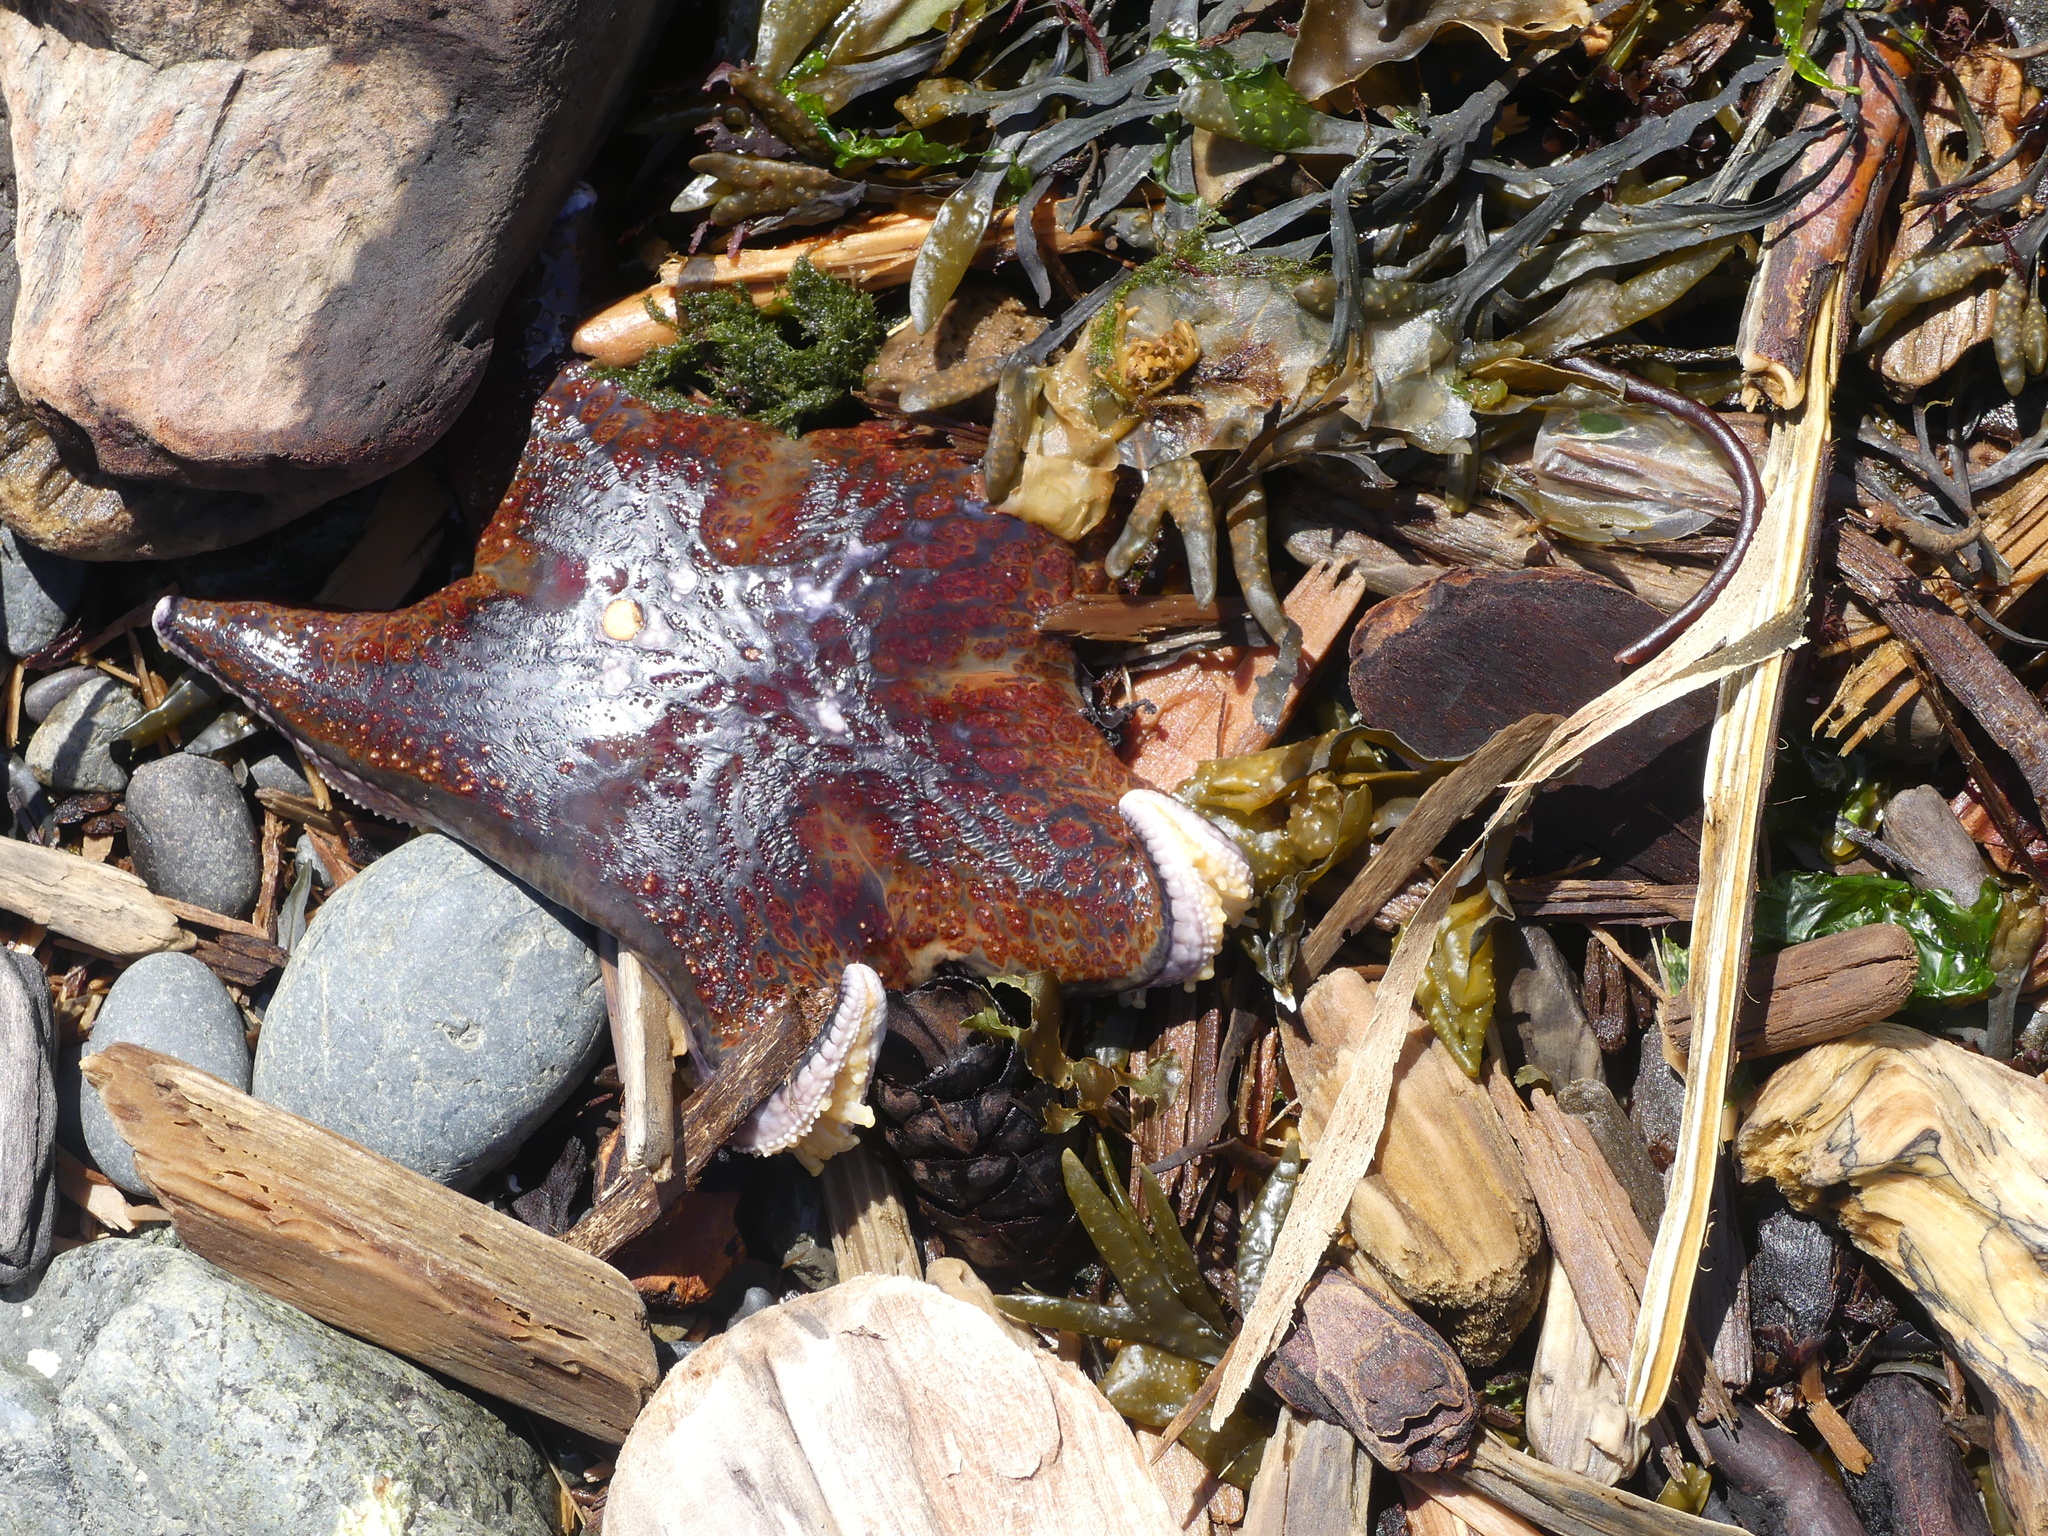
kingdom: Animalia
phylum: Echinodermata
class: Asteroidea
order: Valvatida
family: Asteropseidae
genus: Dermasterias
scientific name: Dermasterias imbricata
